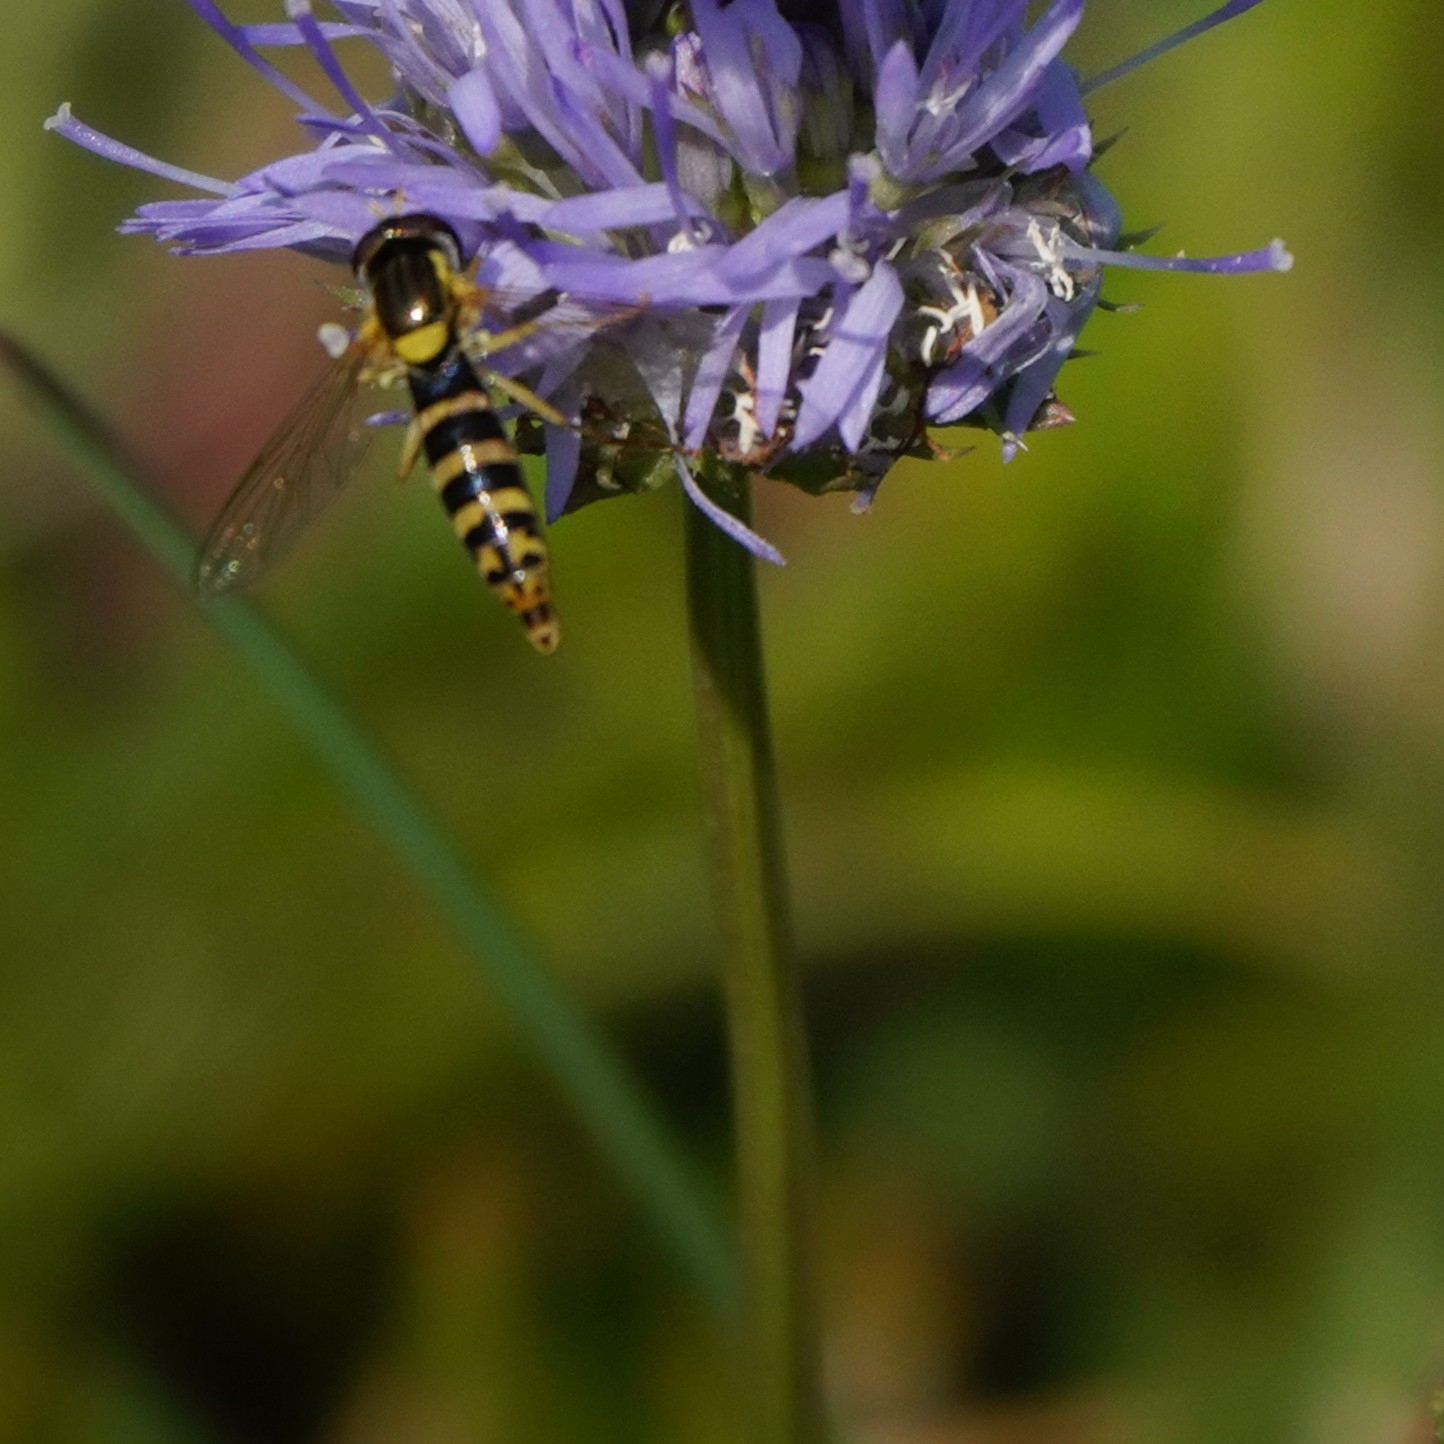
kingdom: Animalia
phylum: Arthropoda
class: Insecta
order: Diptera
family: Syrphidae
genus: Sphaerophoria
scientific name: Sphaerophoria
